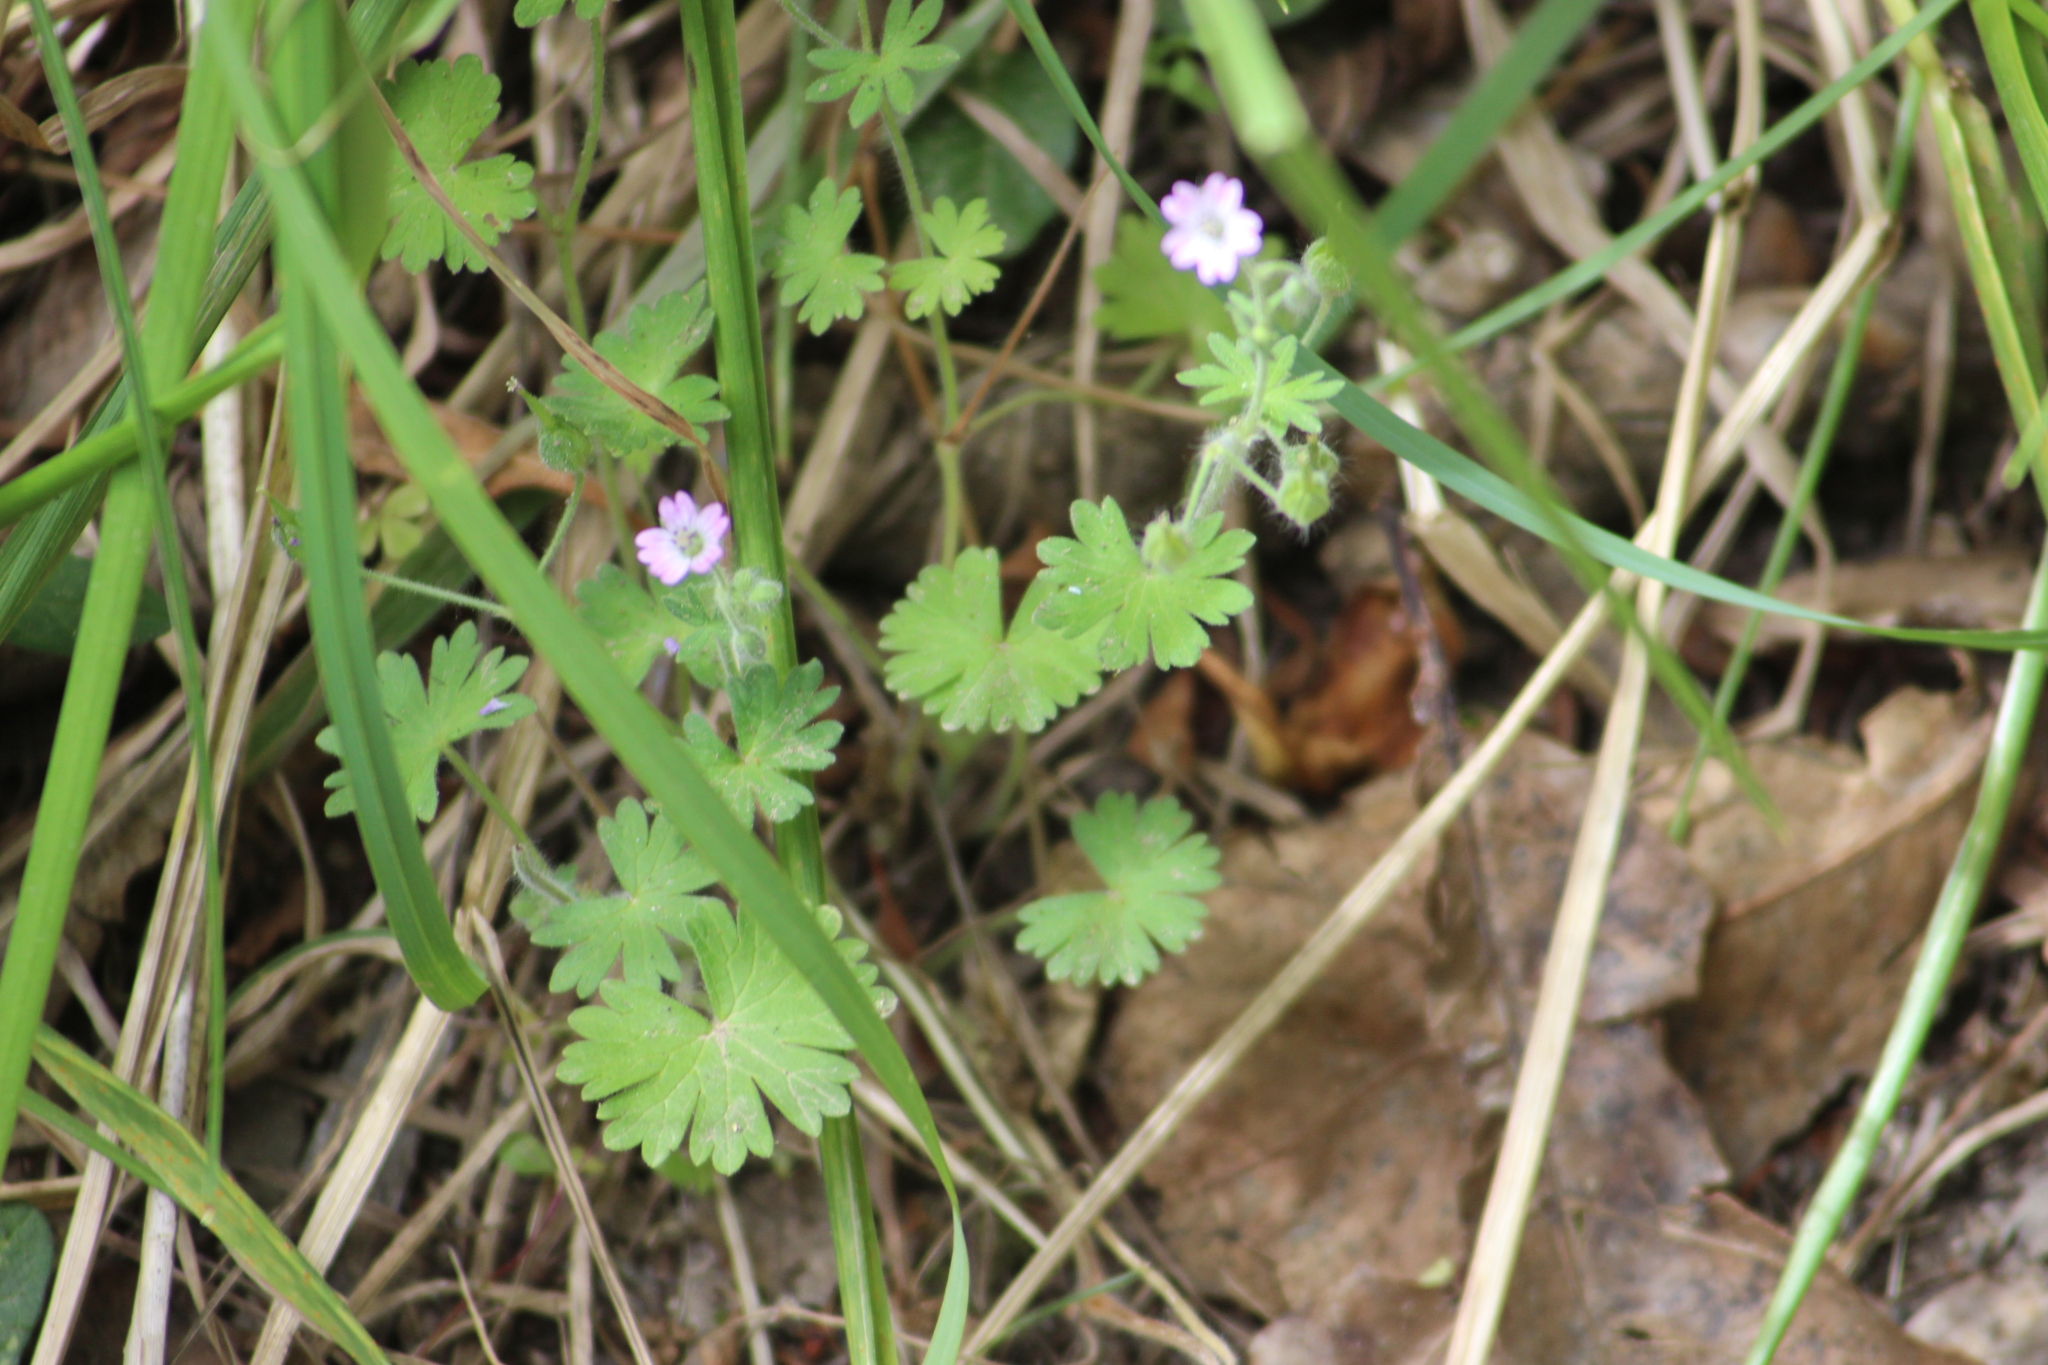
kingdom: Plantae
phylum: Tracheophyta
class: Magnoliopsida
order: Geraniales
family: Geraniaceae
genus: Geranium
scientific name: Geranium molle
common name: Dove's-foot crane's-bill
